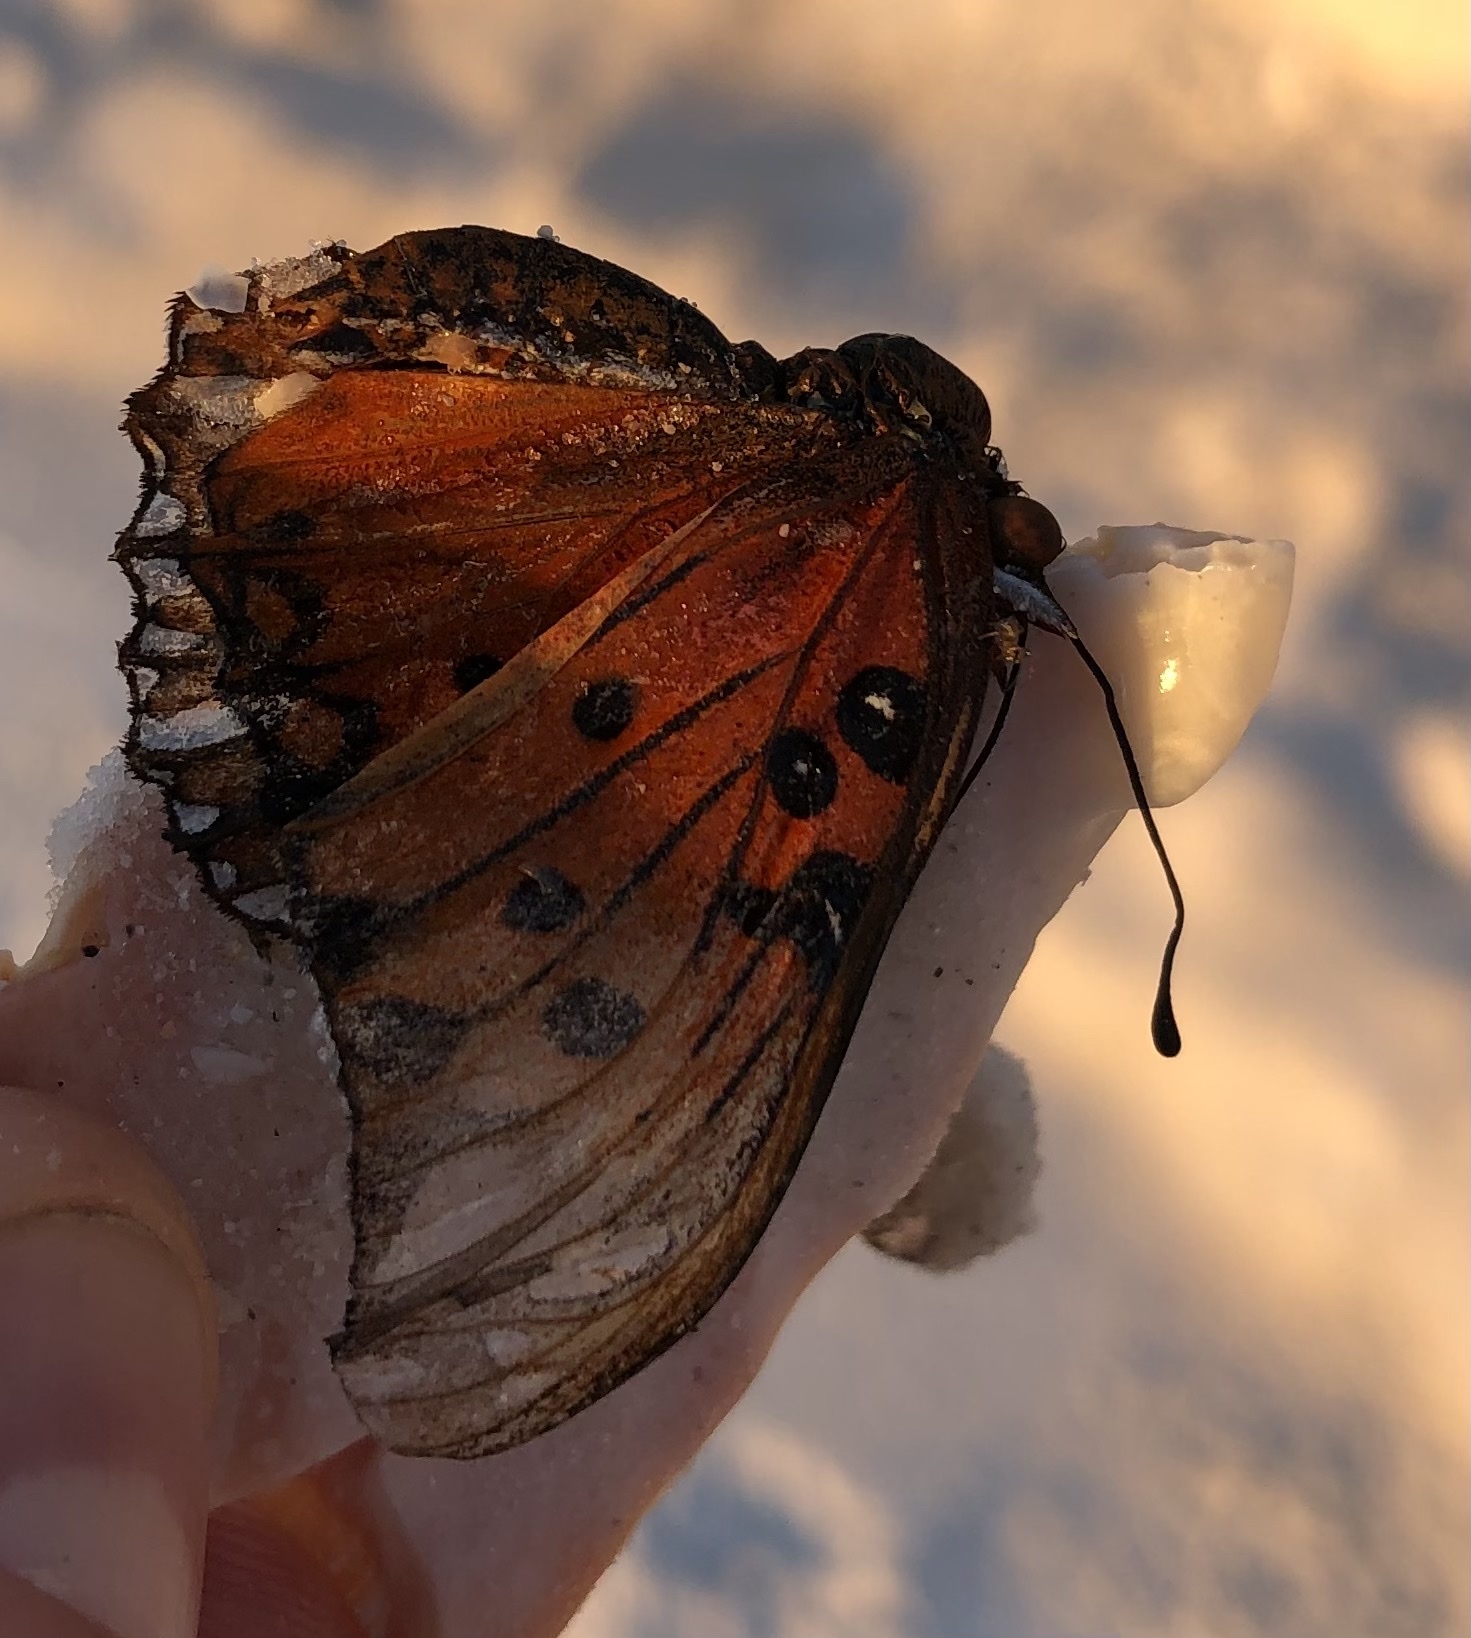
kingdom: Animalia
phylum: Arthropoda
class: Insecta
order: Lepidoptera
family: Nymphalidae
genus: Dione
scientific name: Dione vanillae
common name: Gulf fritillary
